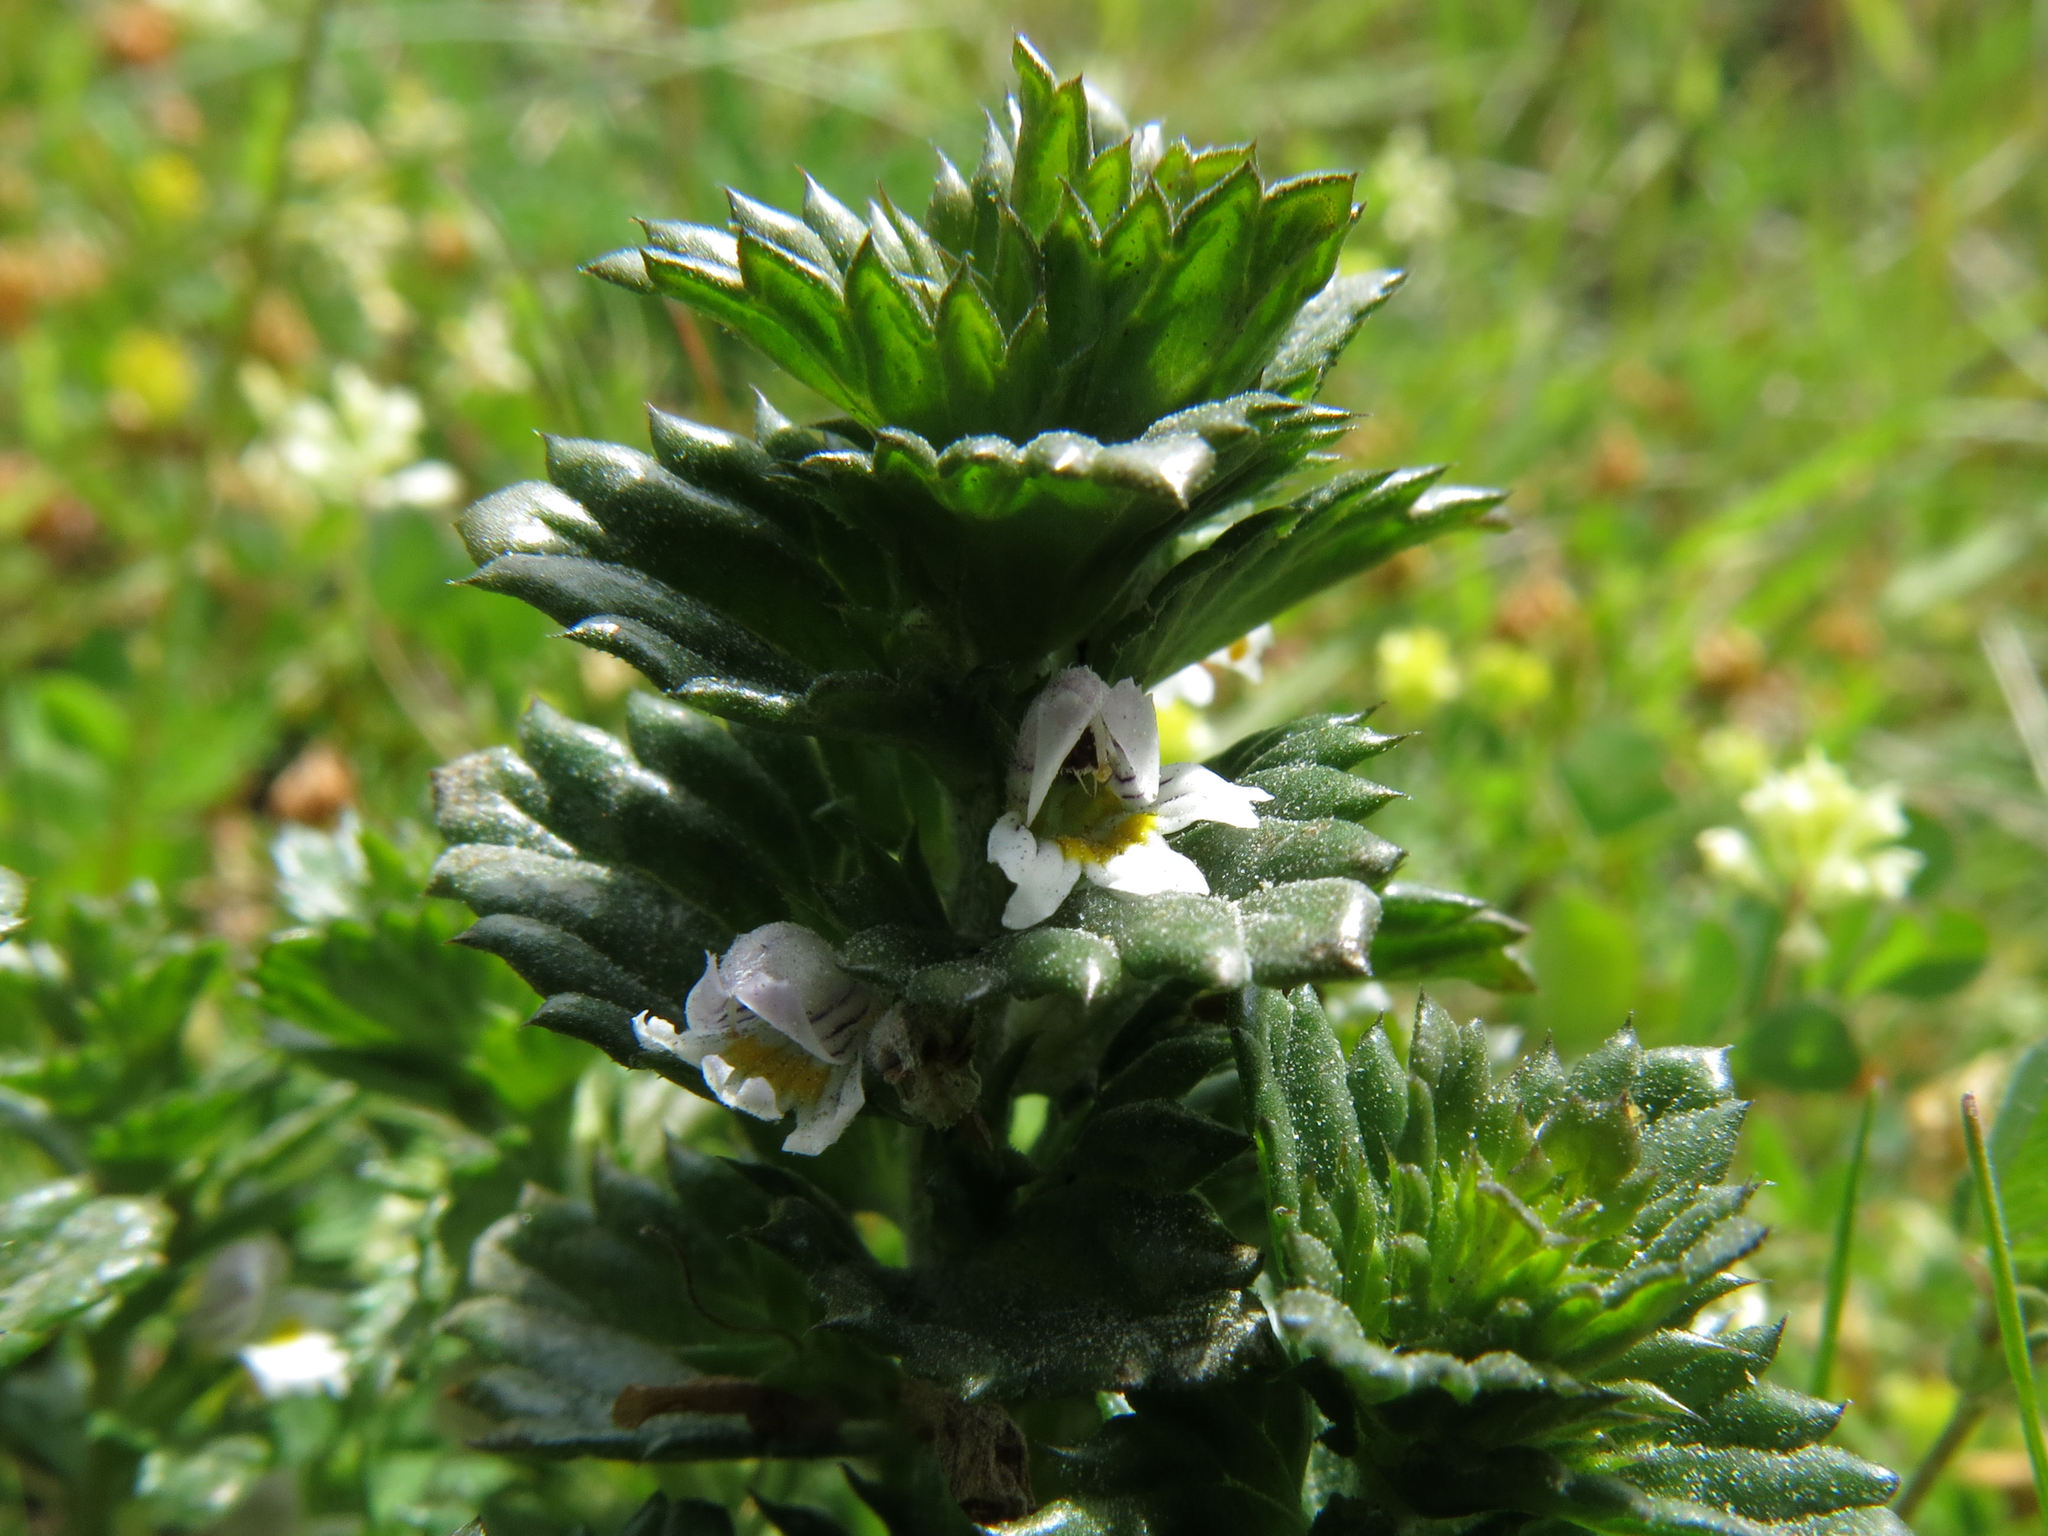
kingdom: Plantae
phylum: Tracheophyta
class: Magnoliopsida
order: Lamiales
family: Orobanchaceae
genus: Euphrasia
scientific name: Euphrasia nemorosa
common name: Common eyebright
